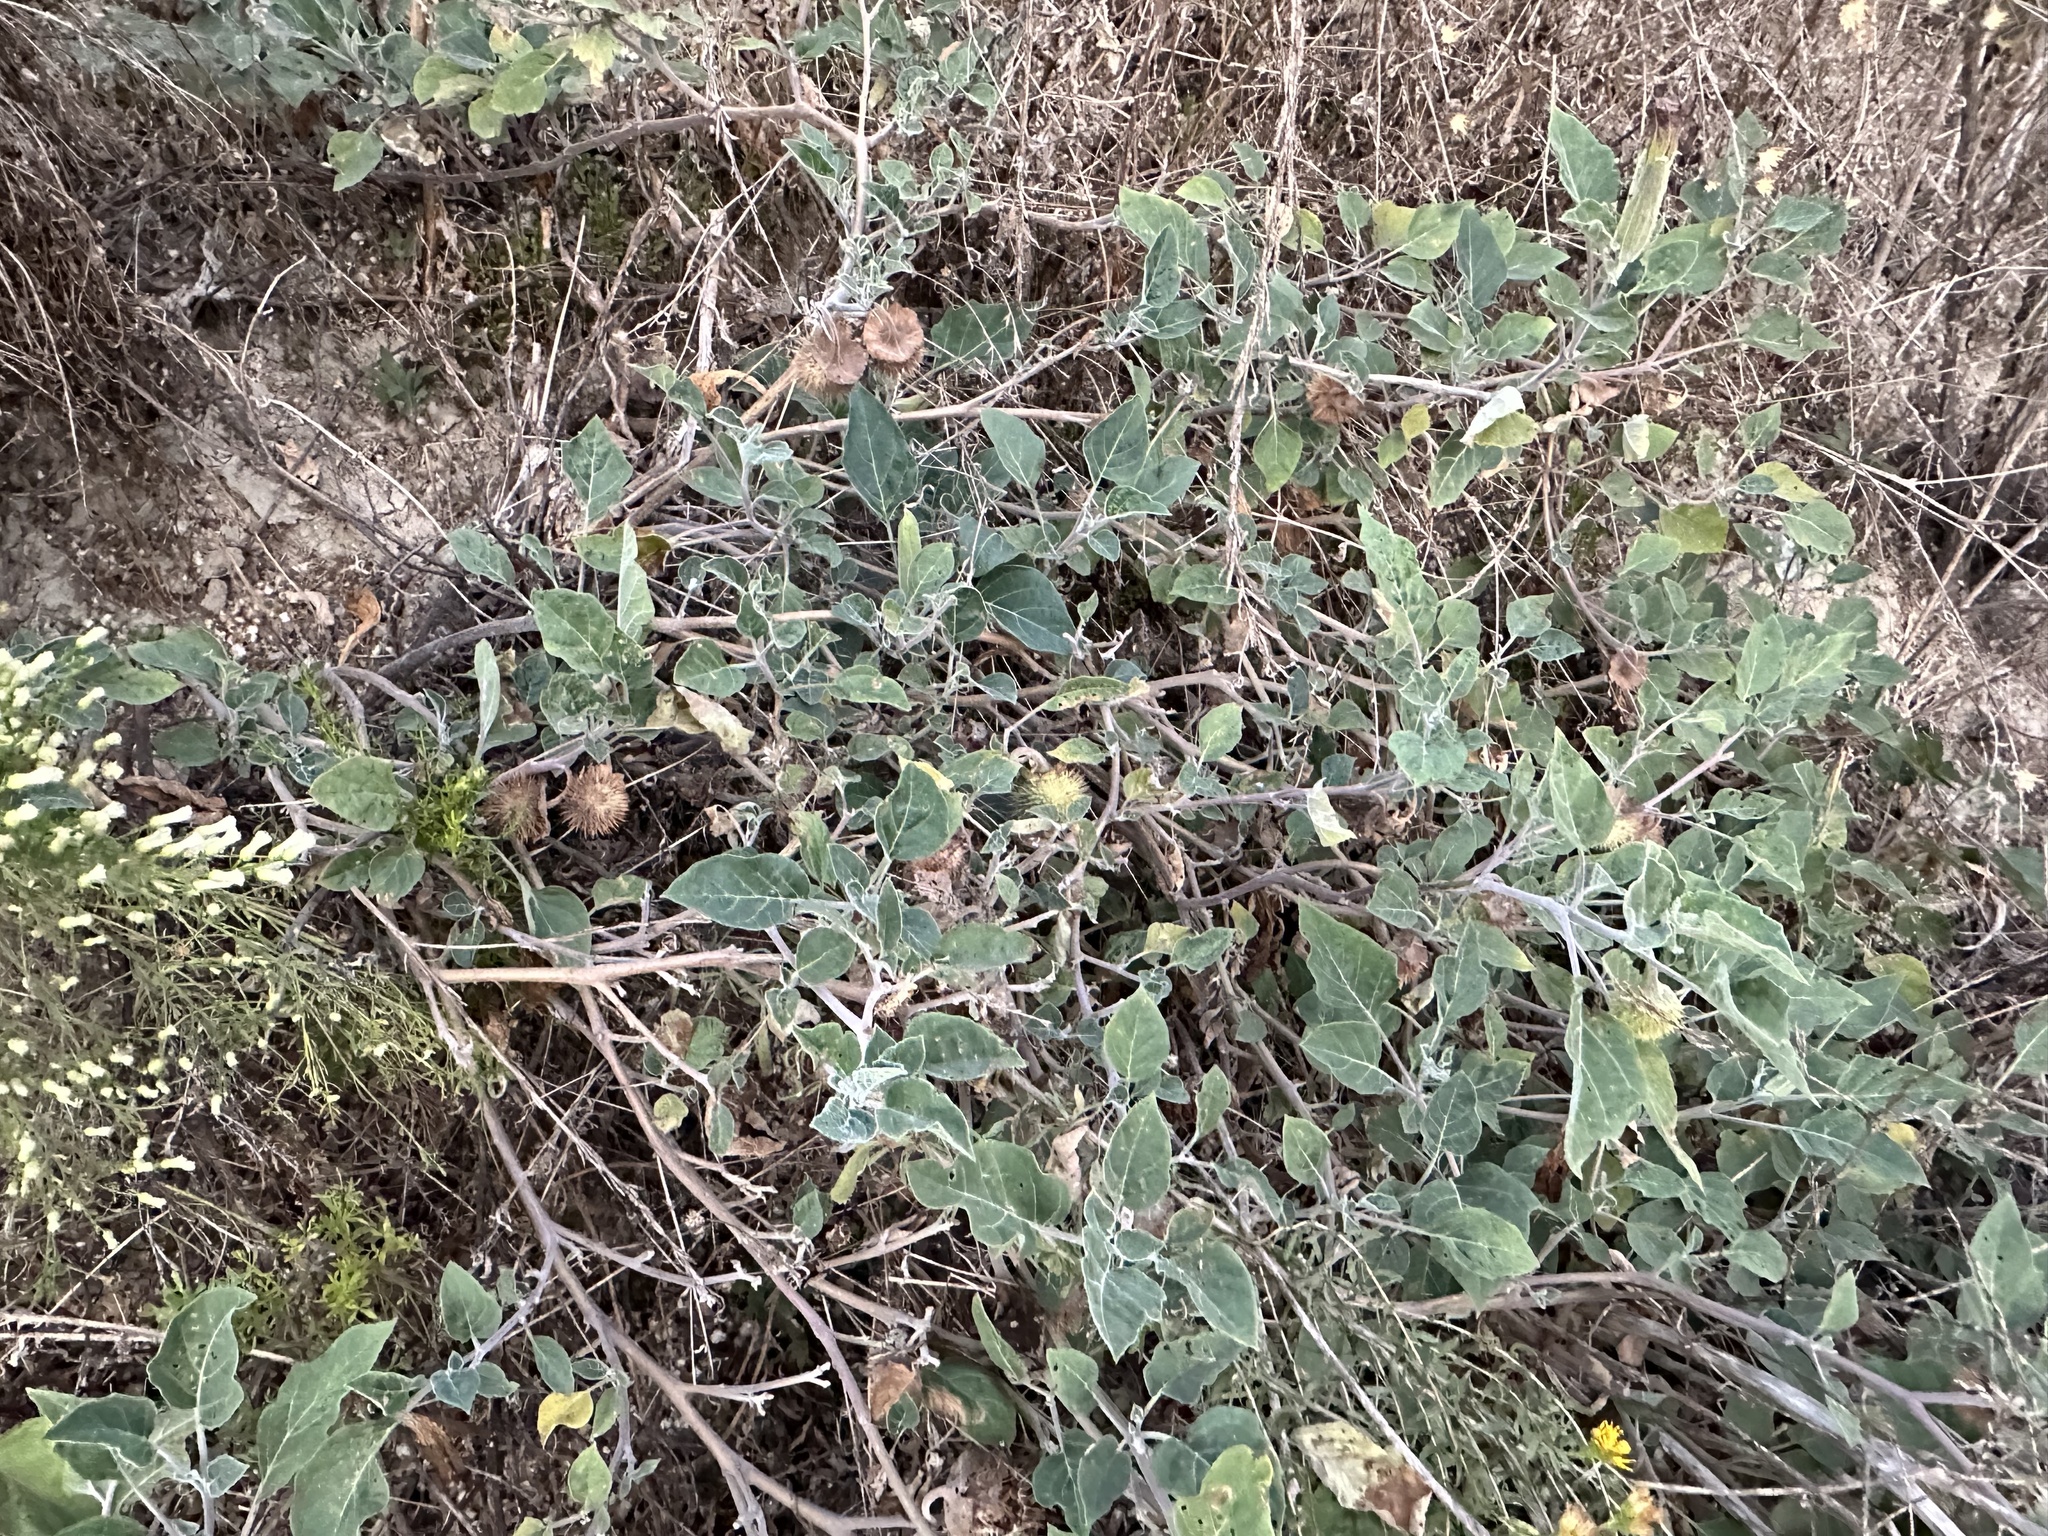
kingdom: Plantae
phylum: Tracheophyta
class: Magnoliopsida
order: Solanales
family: Solanaceae
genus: Datura
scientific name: Datura wrightii
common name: Sacred thorn-apple
